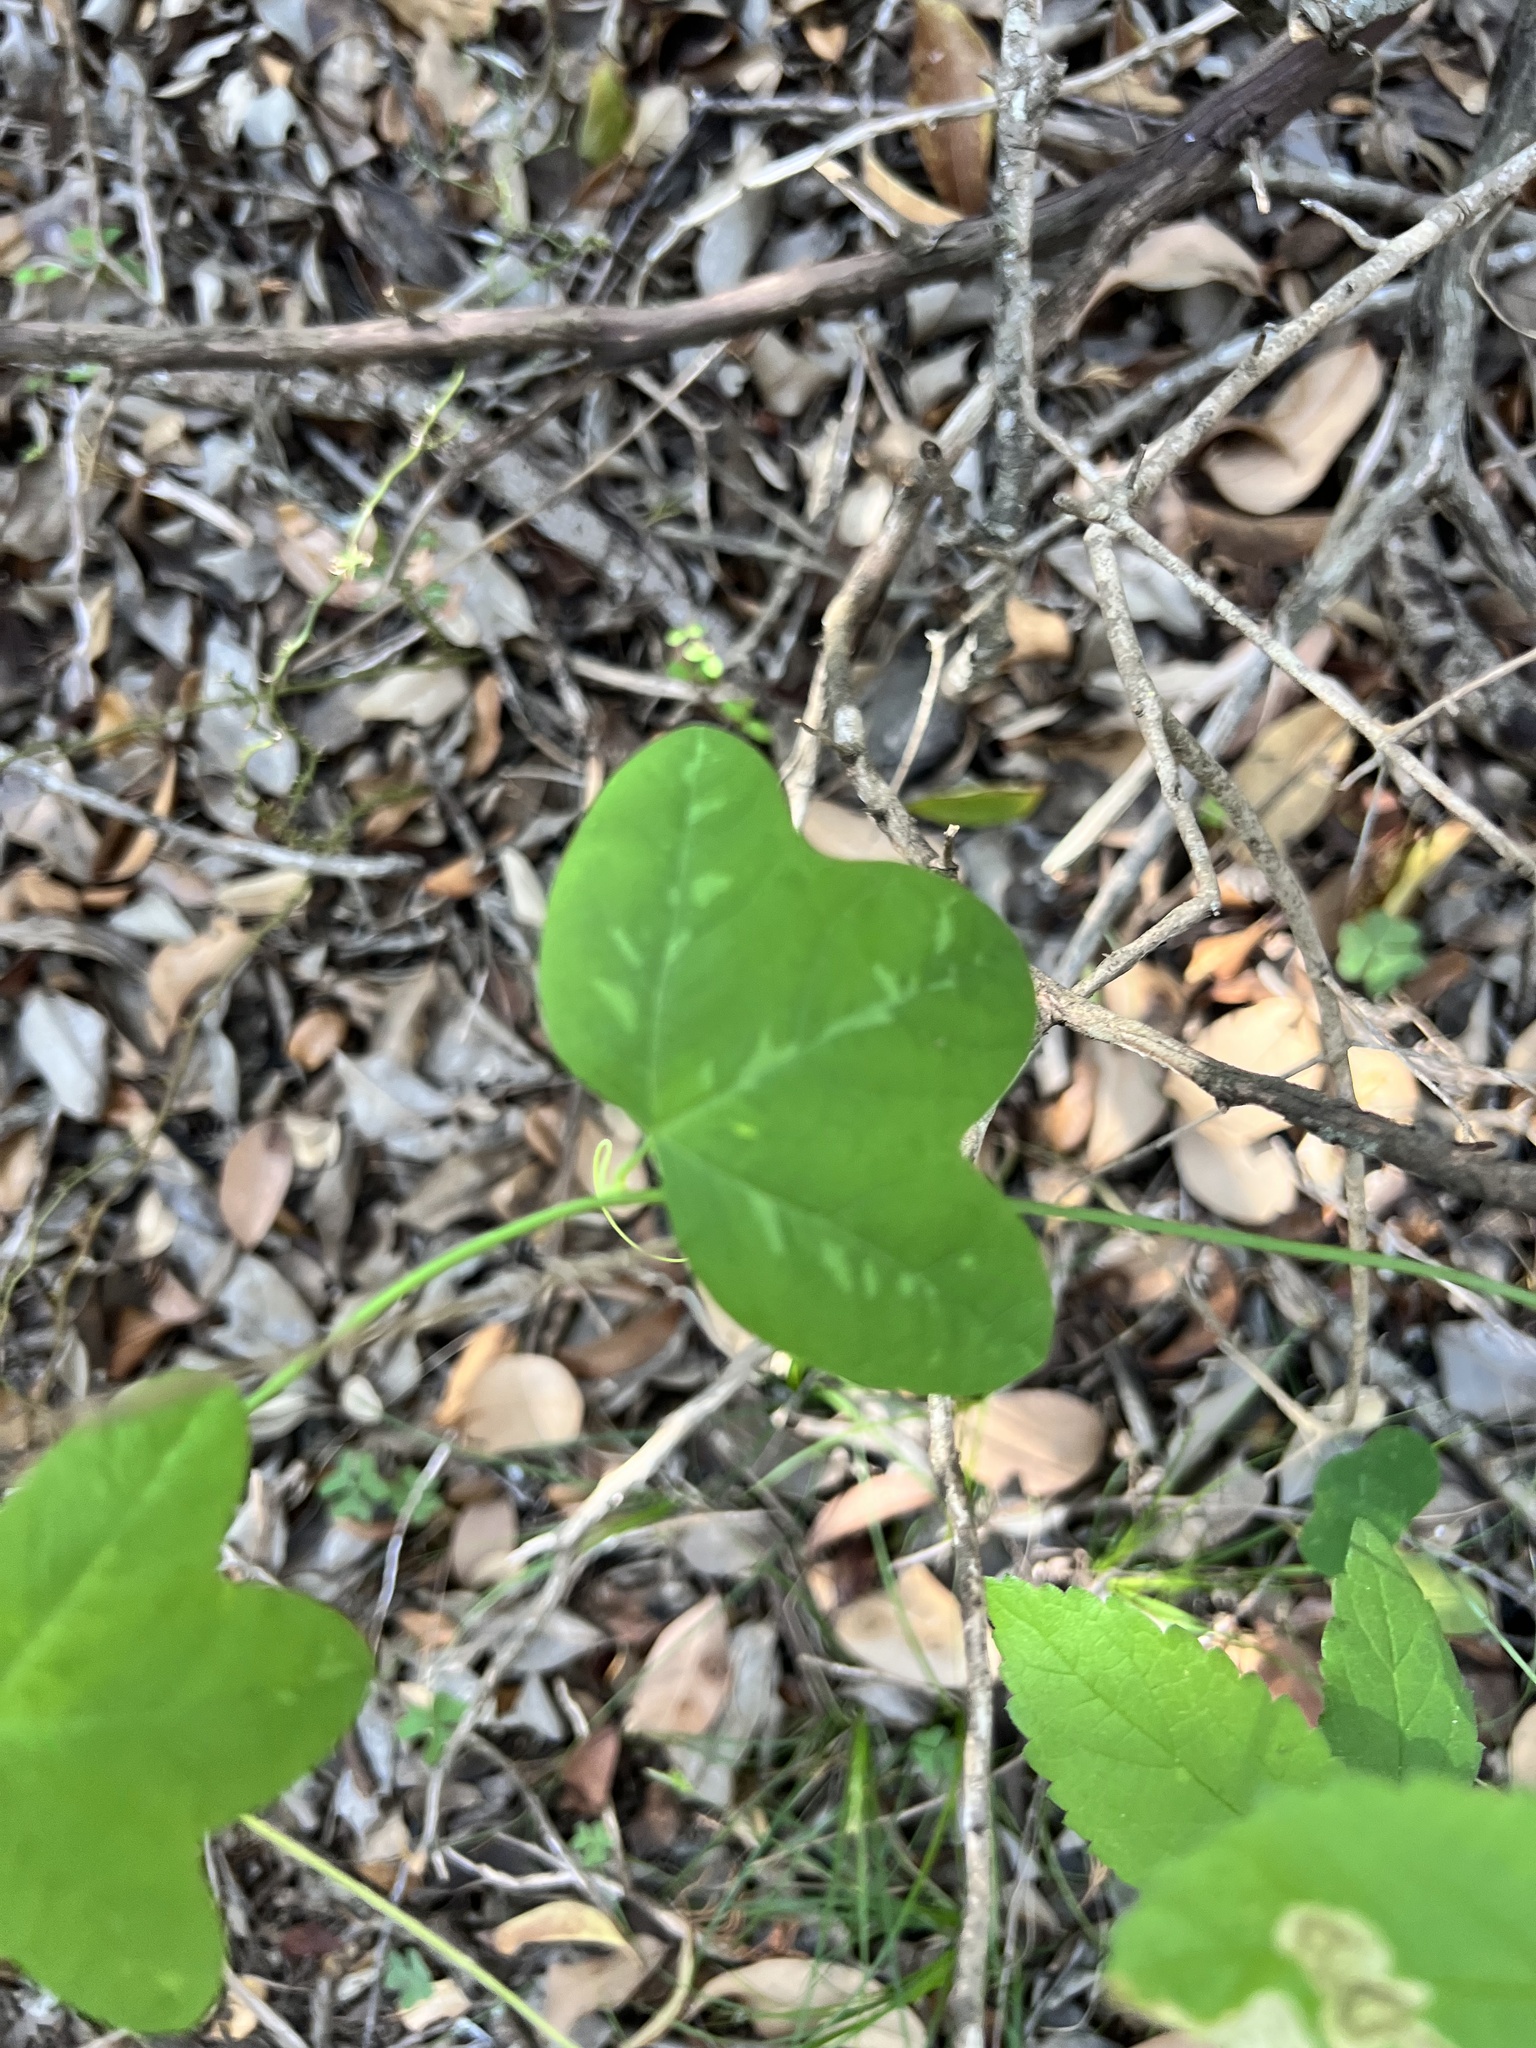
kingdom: Plantae
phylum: Tracheophyta
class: Magnoliopsida
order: Malpighiales
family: Passifloraceae
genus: Passiflora
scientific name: Passiflora lutea
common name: Yellow passionflower
